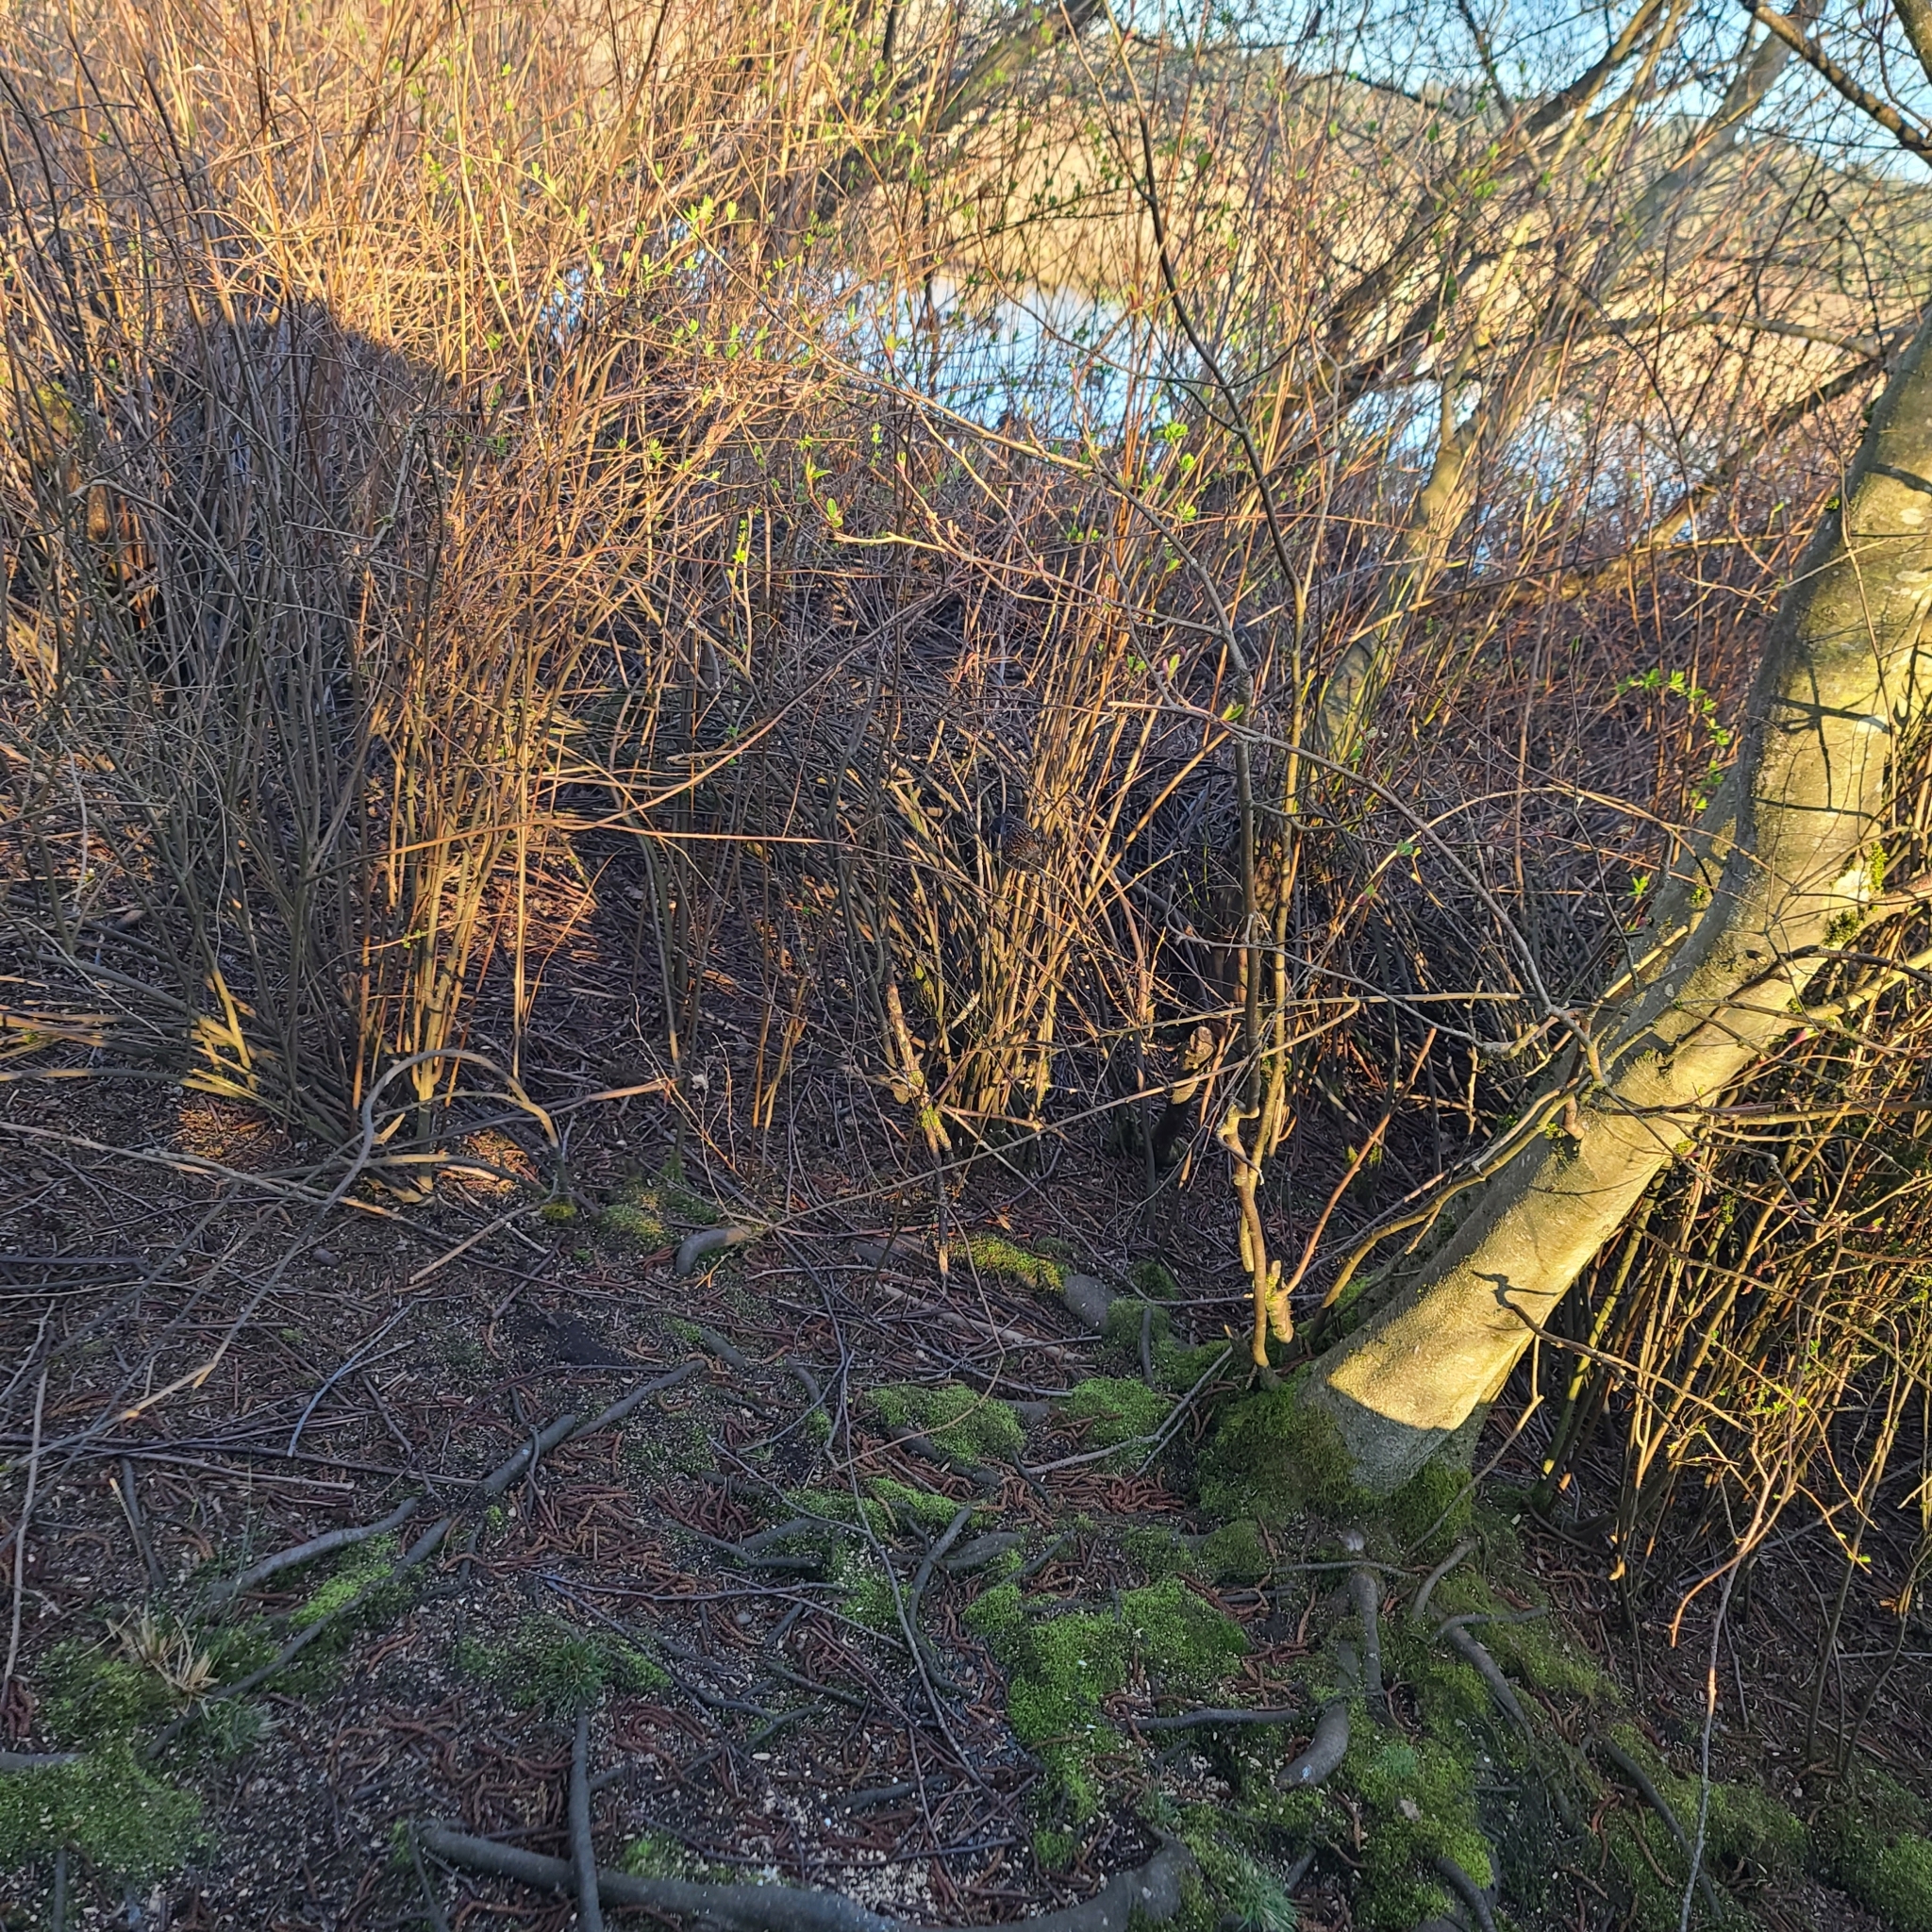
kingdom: Animalia
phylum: Chordata
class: Aves
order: Passeriformes
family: Icteridae
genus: Agelaius
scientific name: Agelaius phoeniceus
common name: Red-winged blackbird
